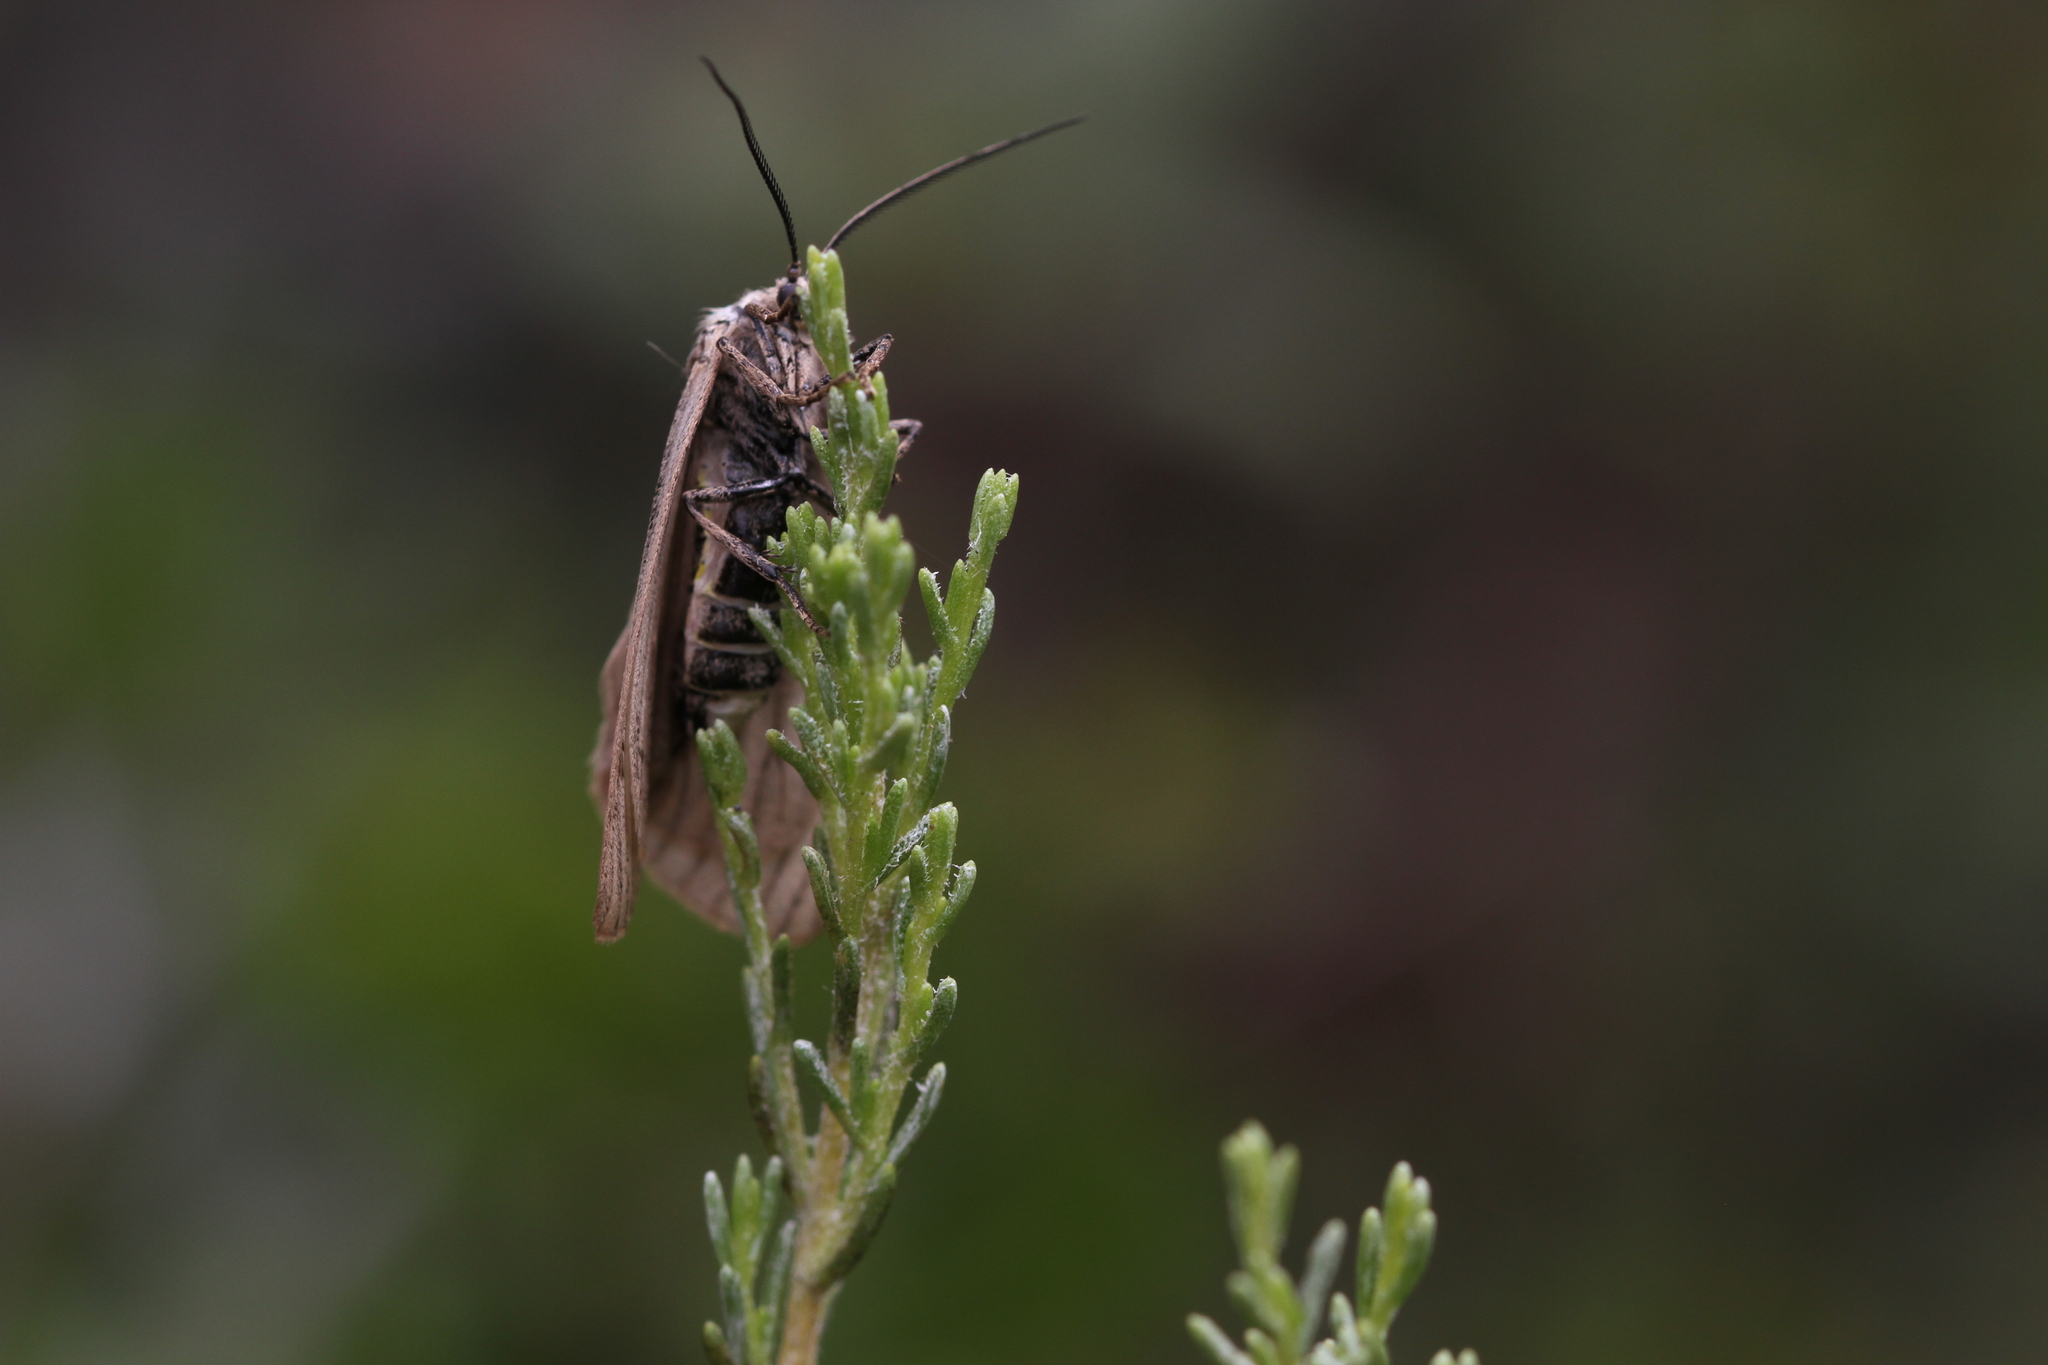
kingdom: Animalia
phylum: Arthropoda
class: Insecta
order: Lepidoptera
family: Notodontidae
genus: Phryganidia
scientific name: Phryganidia californica
